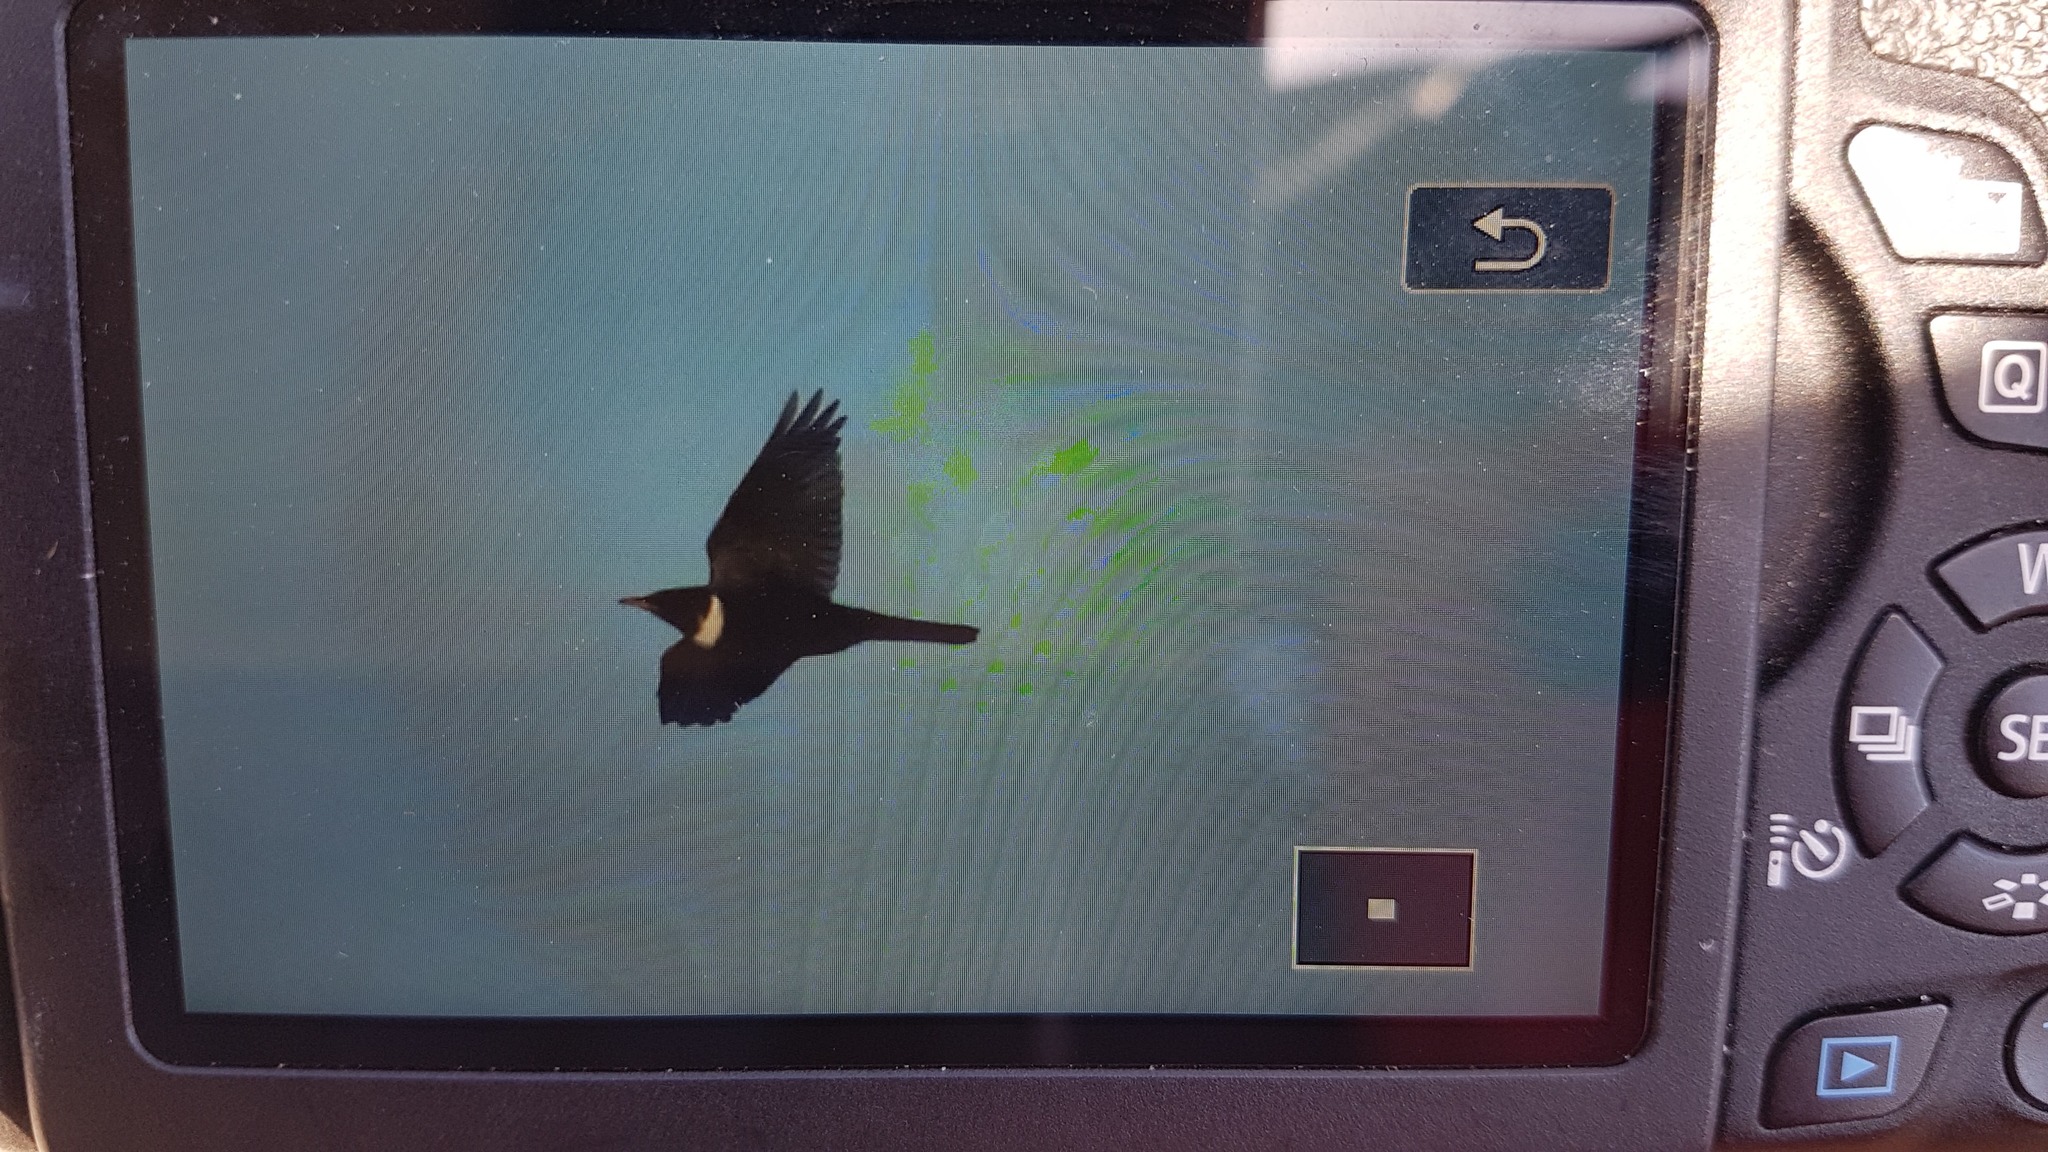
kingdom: Animalia
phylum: Chordata
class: Aves
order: Passeriformes
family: Turdidae
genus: Turdus
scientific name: Turdus torquatus
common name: Ring ouzel
